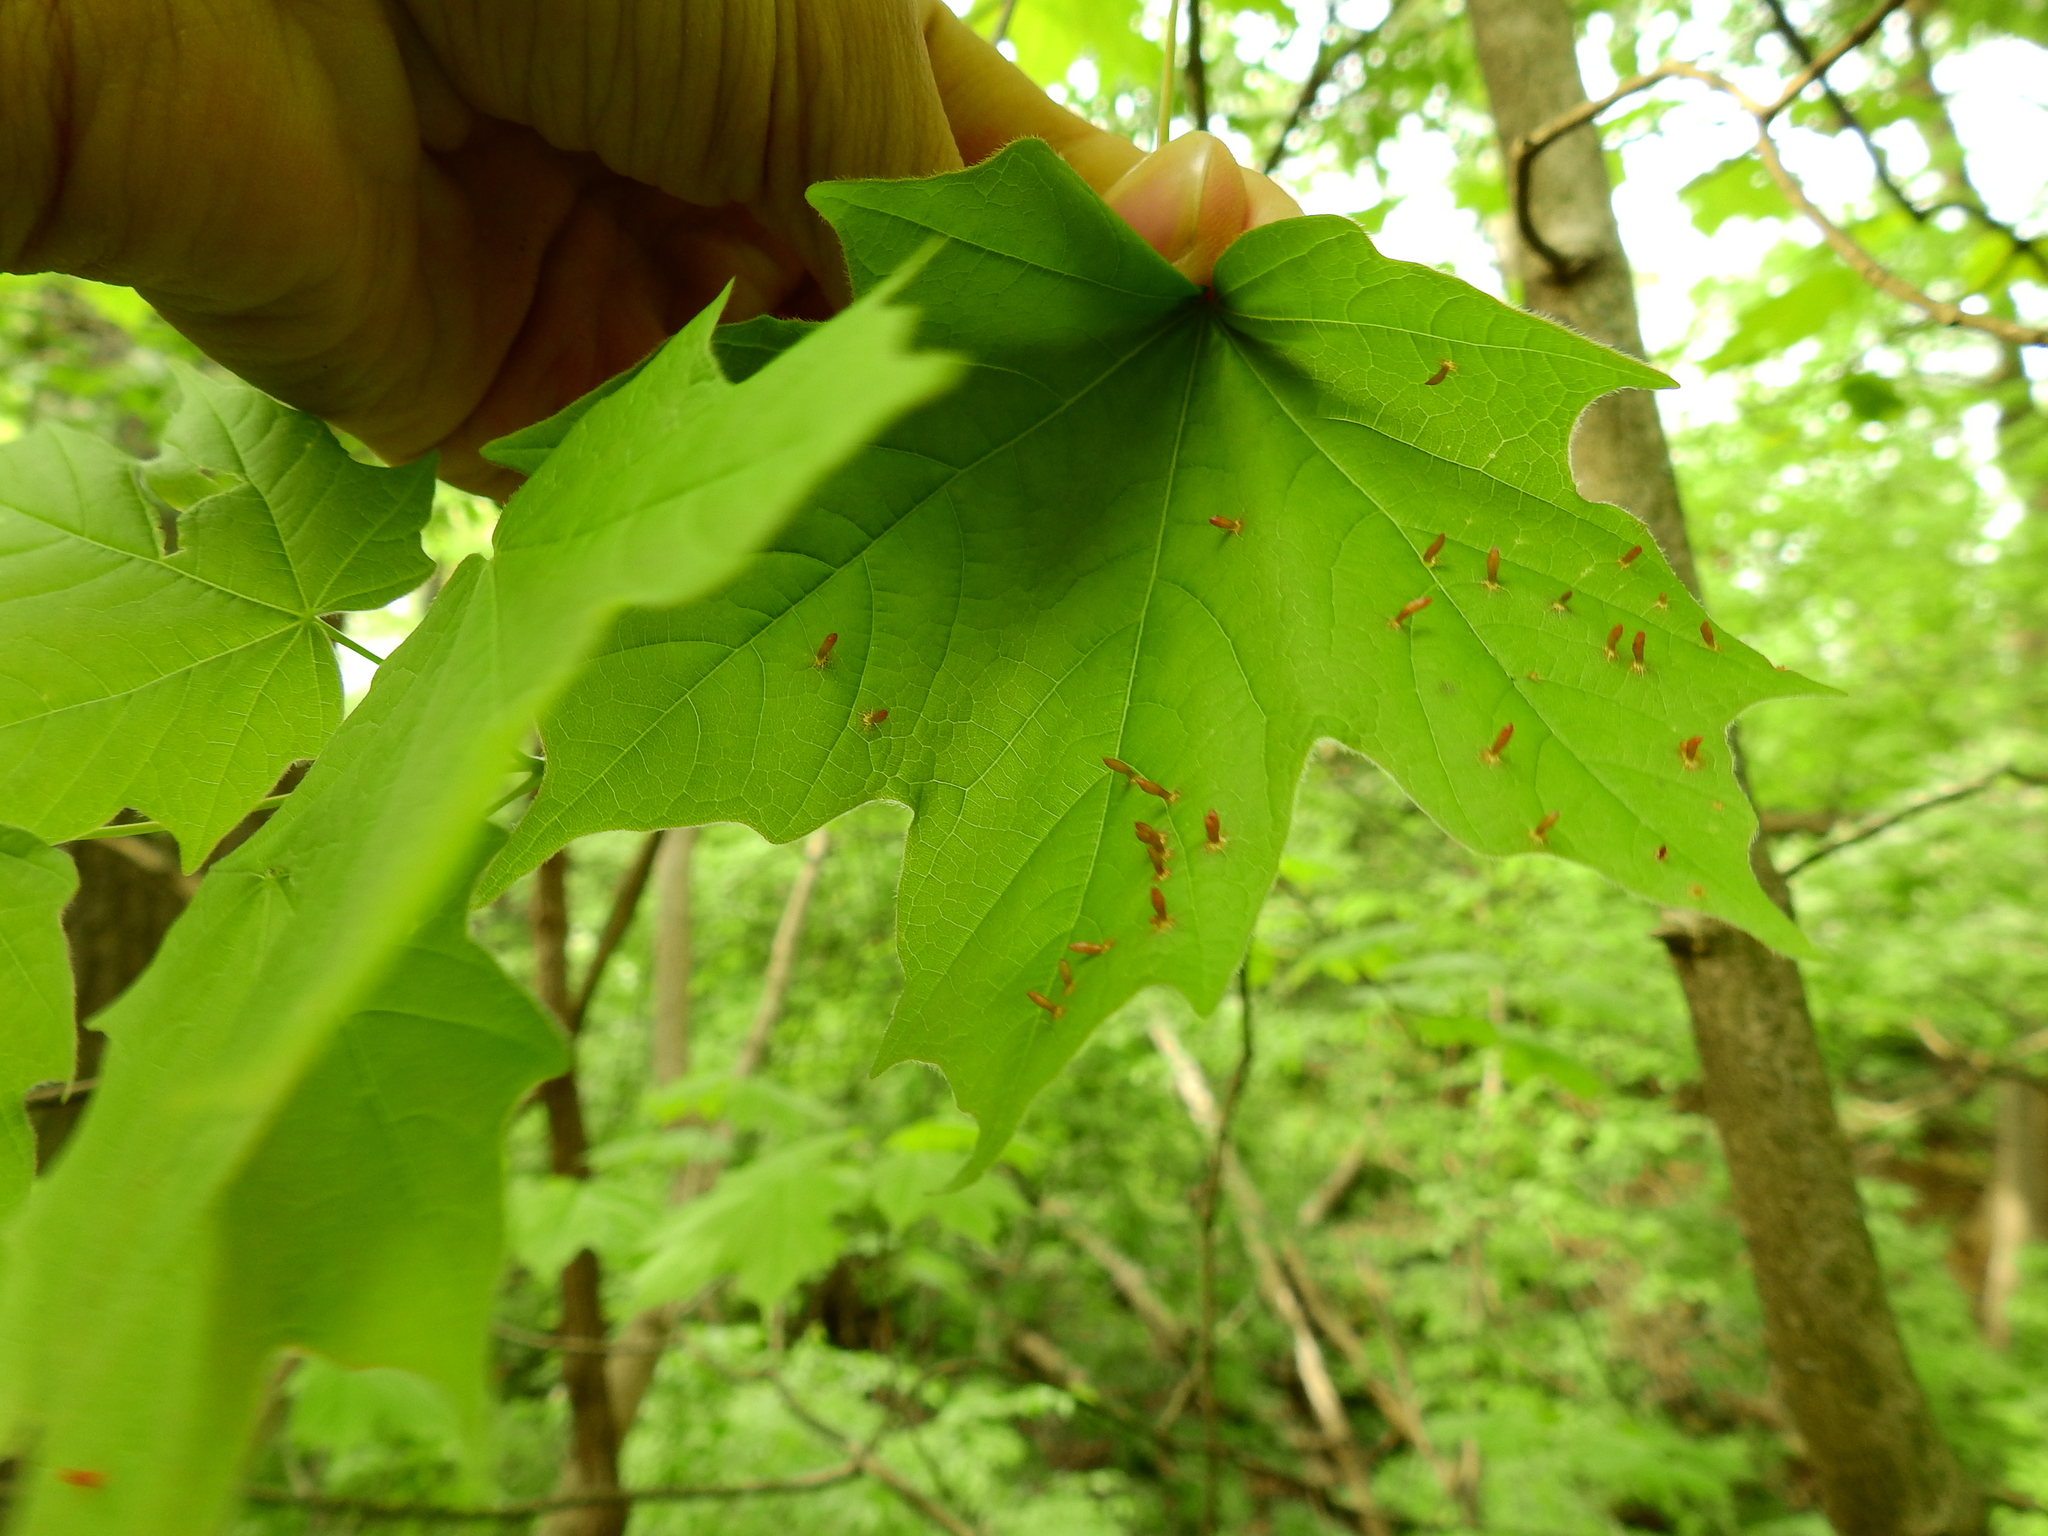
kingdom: Animalia
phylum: Arthropoda
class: Arachnida
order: Trombidiformes
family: Eriophyidae
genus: Vasates
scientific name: Vasates aceriscrumena
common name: Maple spindle gall mite
